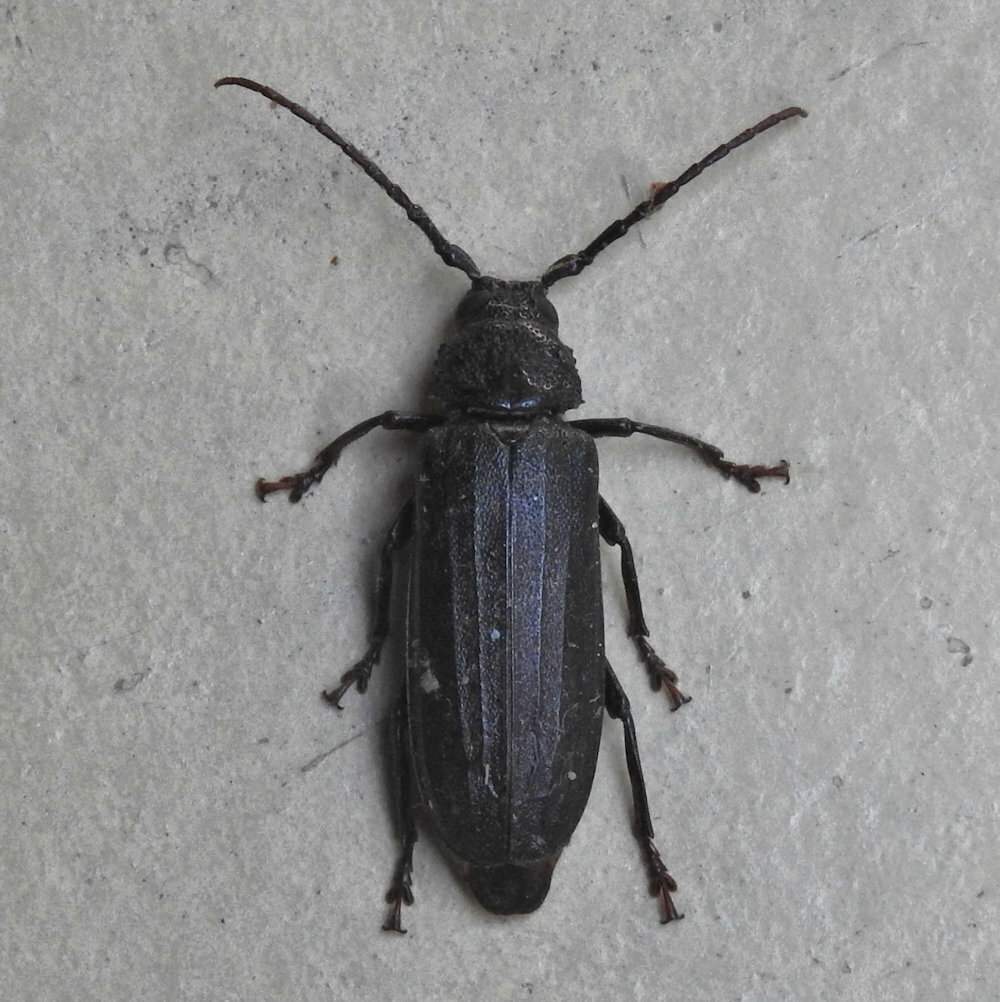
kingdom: Animalia
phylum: Arthropoda
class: Insecta
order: Coleoptera
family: Cerambycidae
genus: Nataloma
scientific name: Nataloma
